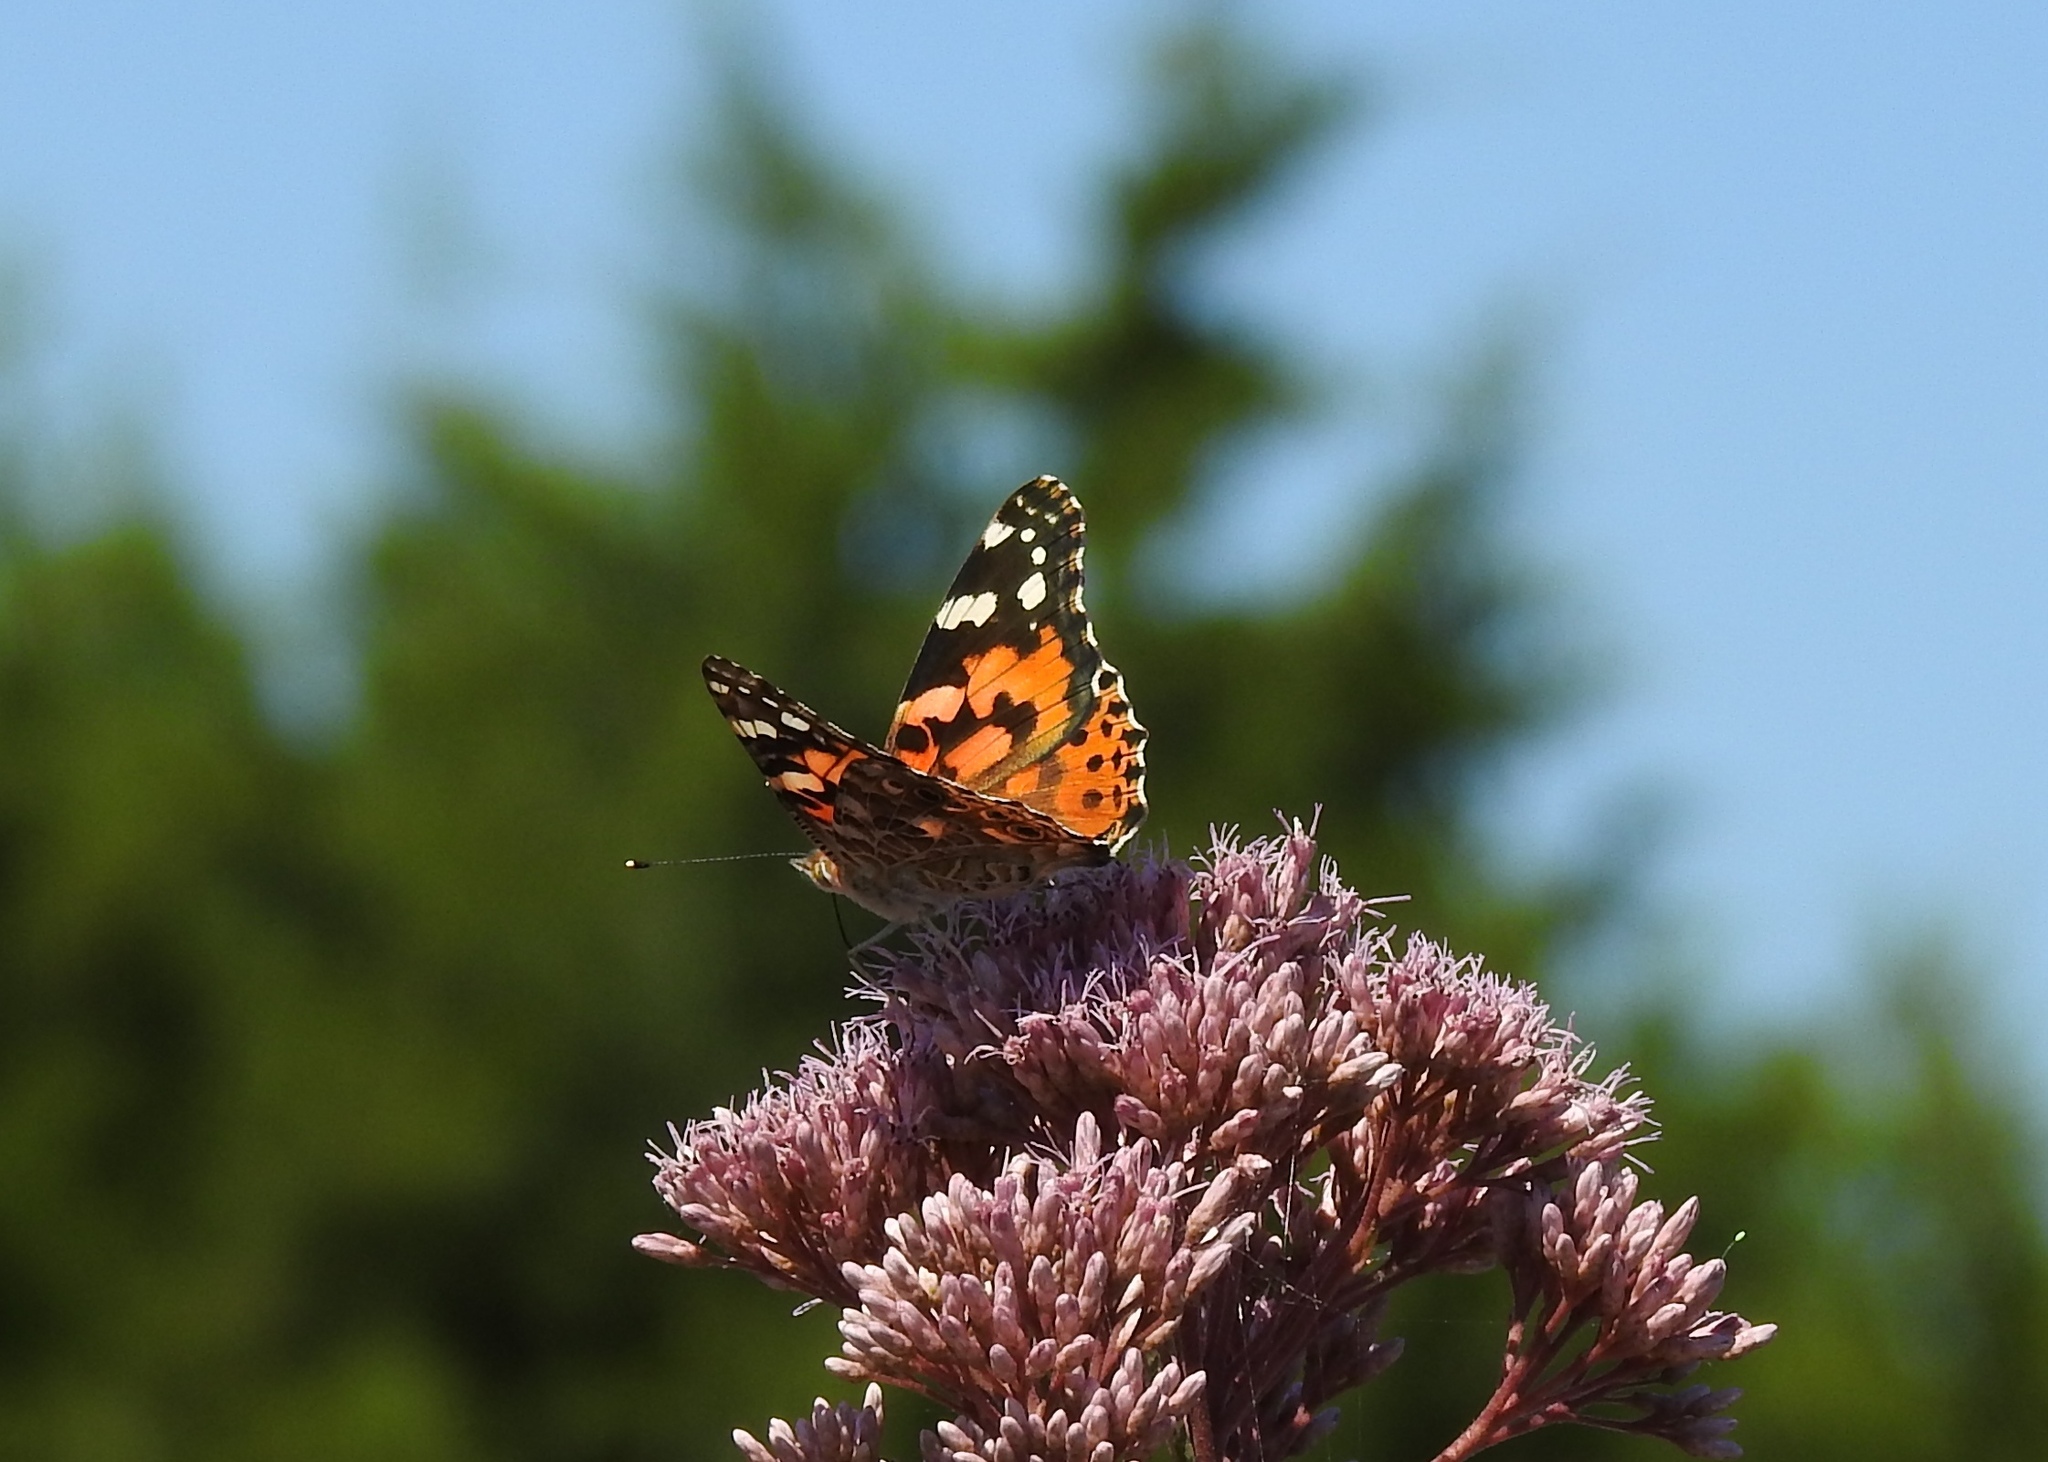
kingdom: Animalia
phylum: Arthropoda
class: Insecta
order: Lepidoptera
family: Nymphalidae
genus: Vanessa
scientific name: Vanessa cardui
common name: Painted lady
